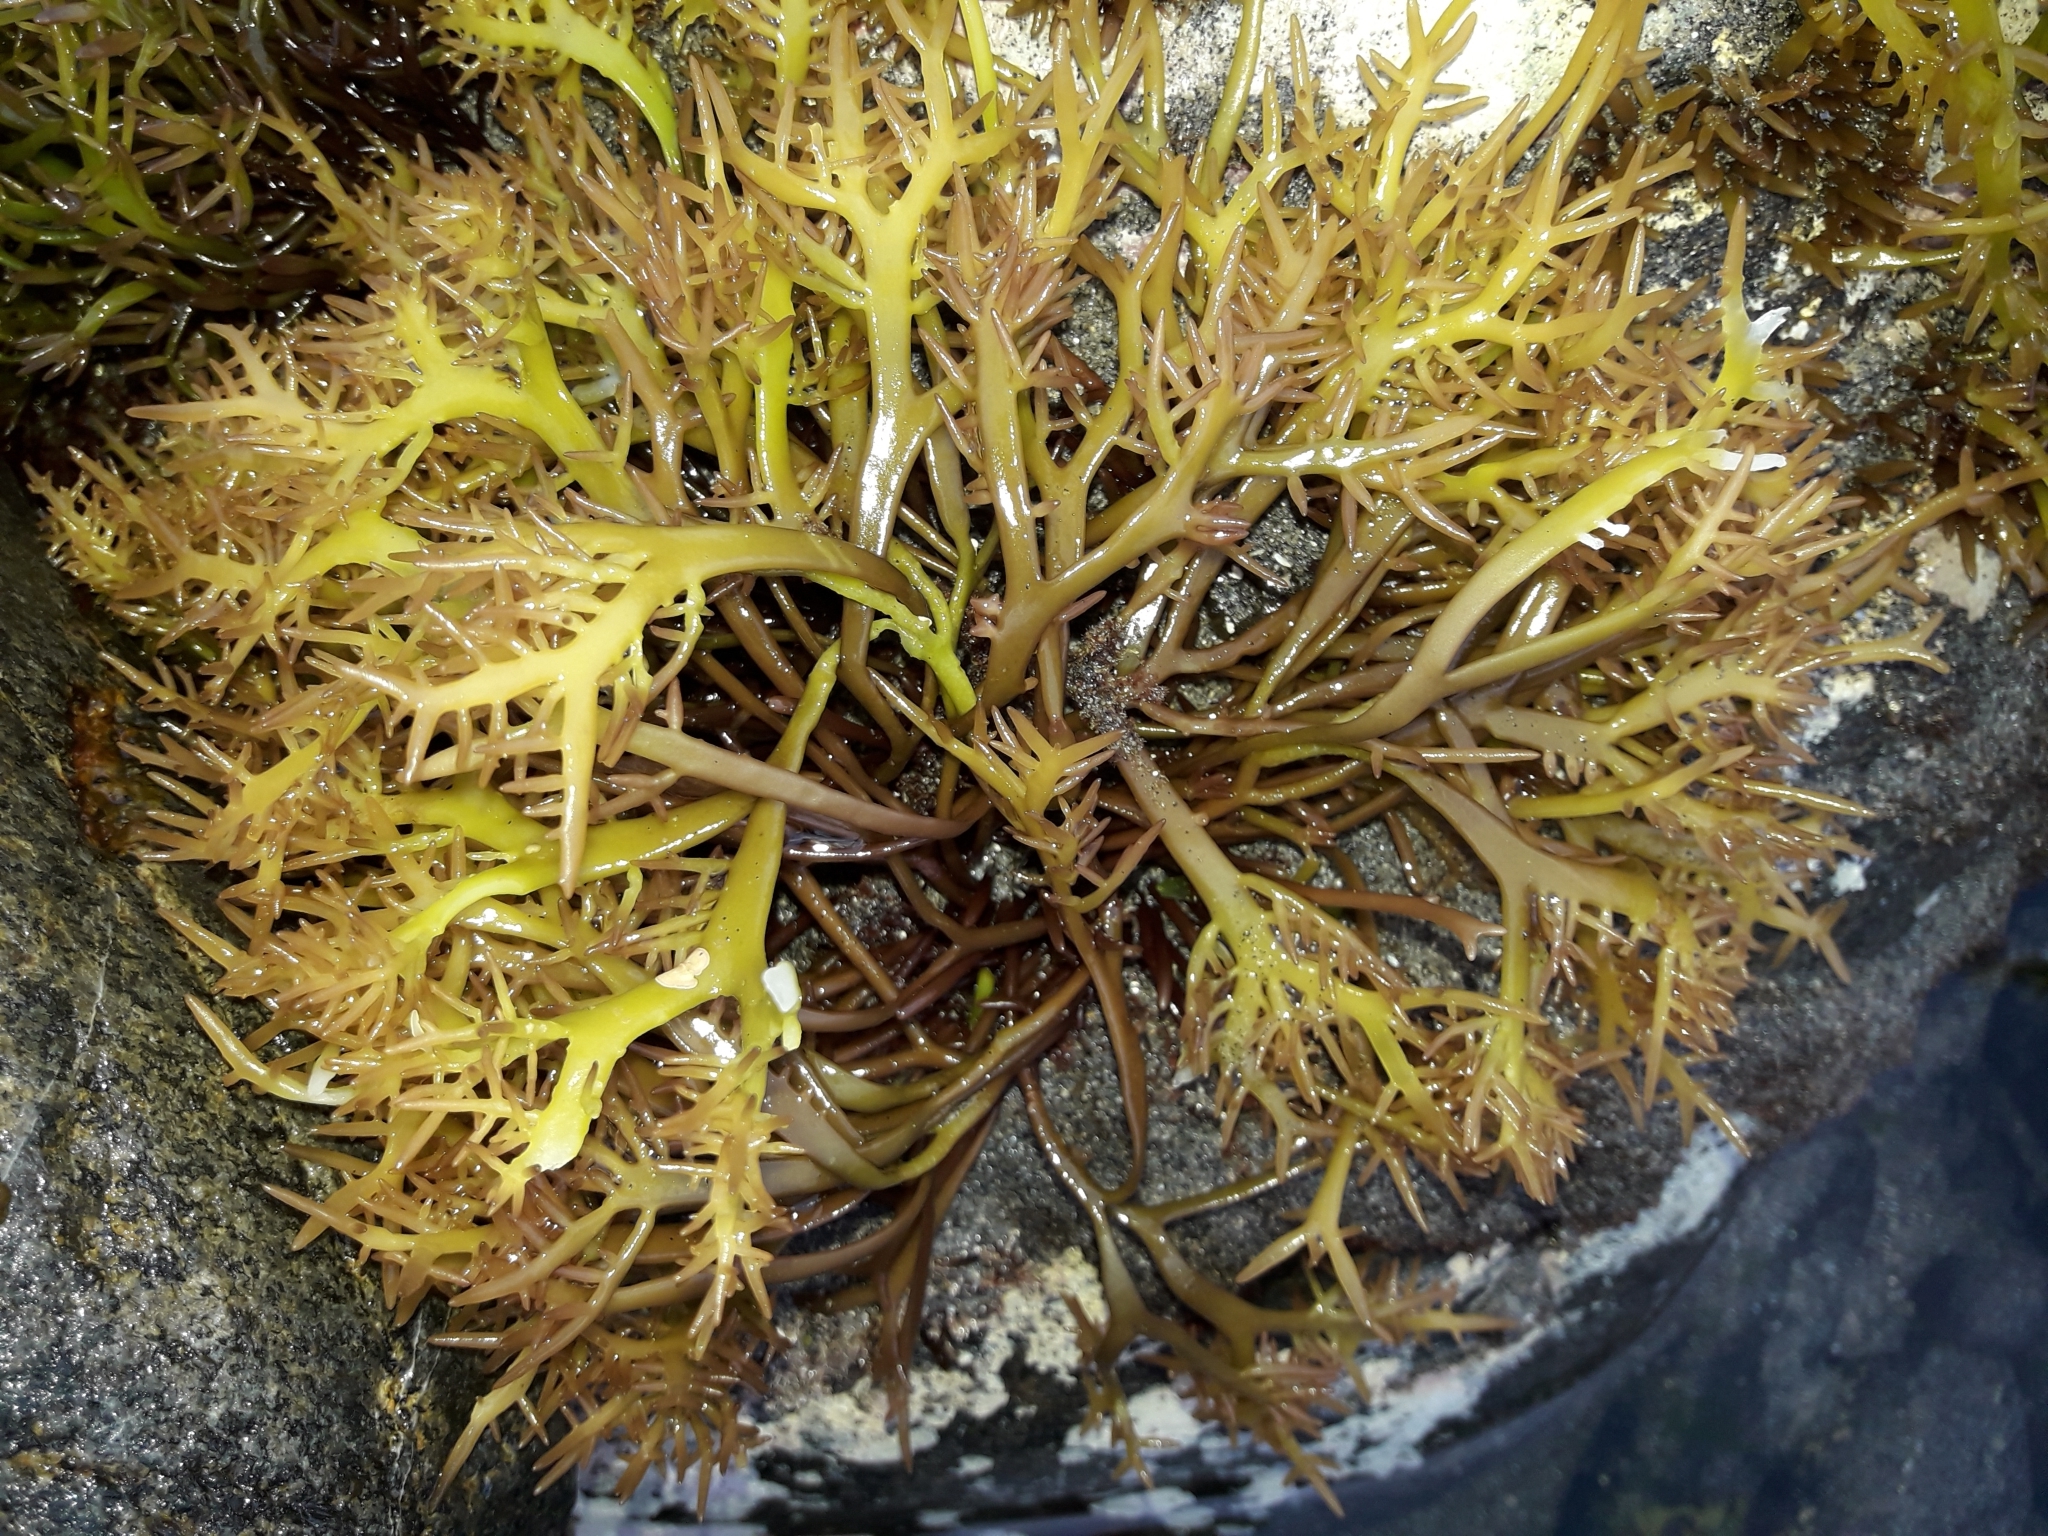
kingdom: Plantae
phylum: Rhodophyta
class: Florideophyceae
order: Gigartinales
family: Gigartinaceae
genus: Sarcothalia
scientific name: Sarcothalia livida
